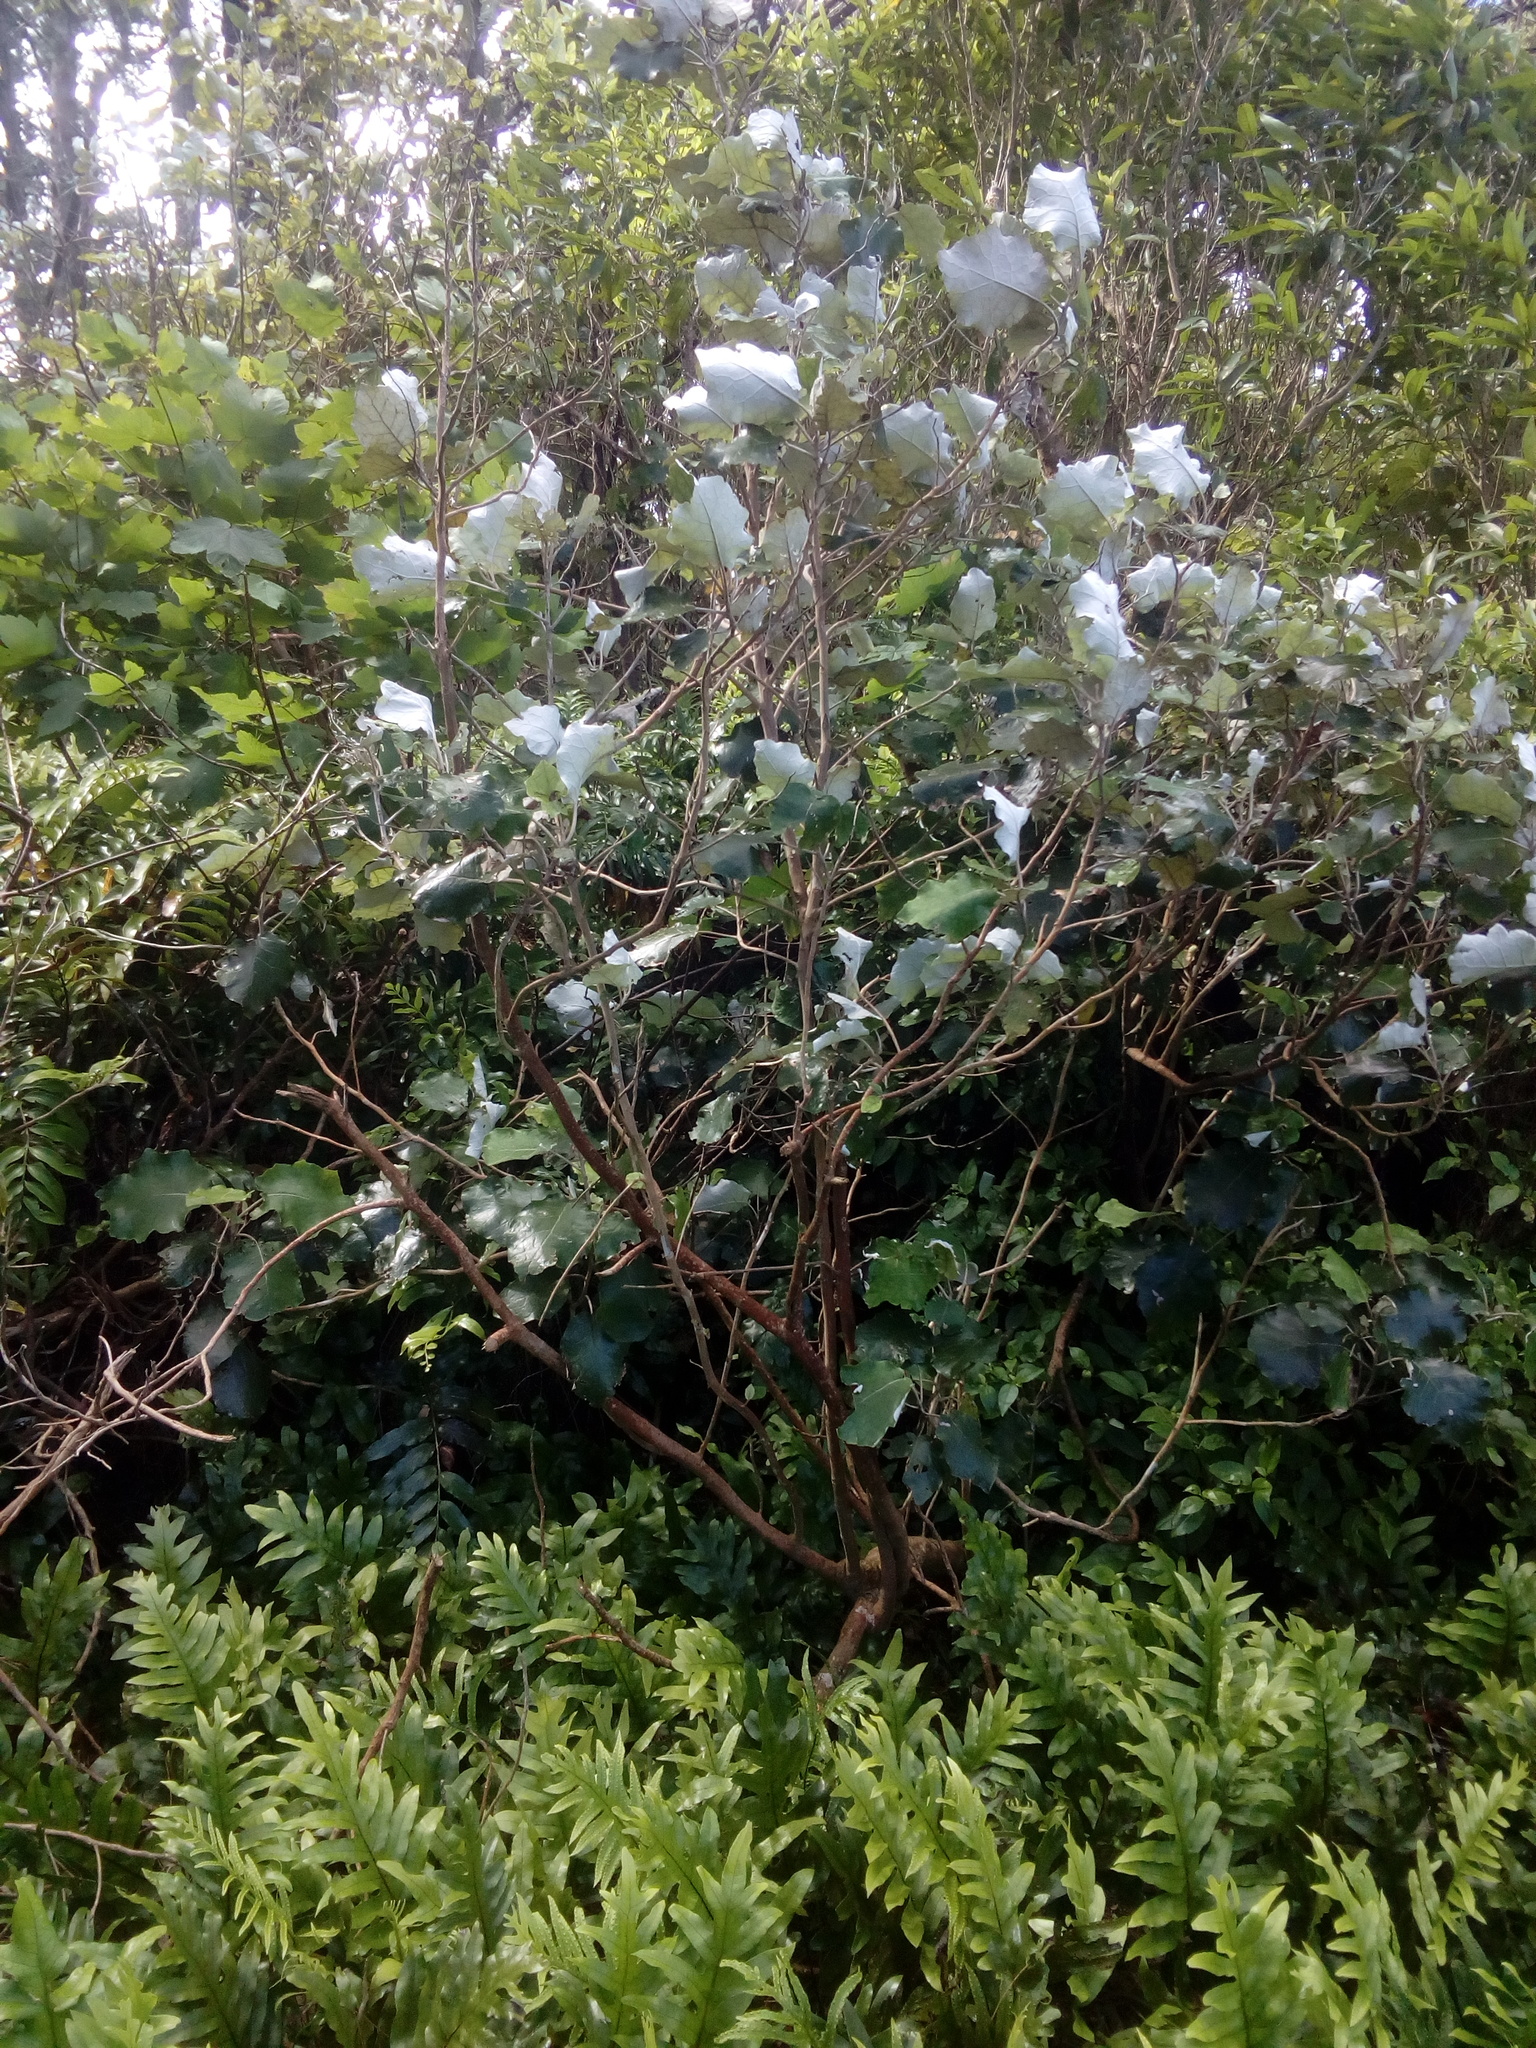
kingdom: Plantae
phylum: Tracheophyta
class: Magnoliopsida
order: Asterales
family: Asteraceae
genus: Brachyglottis
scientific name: Brachyglottis repanda
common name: Hedge ragwort
